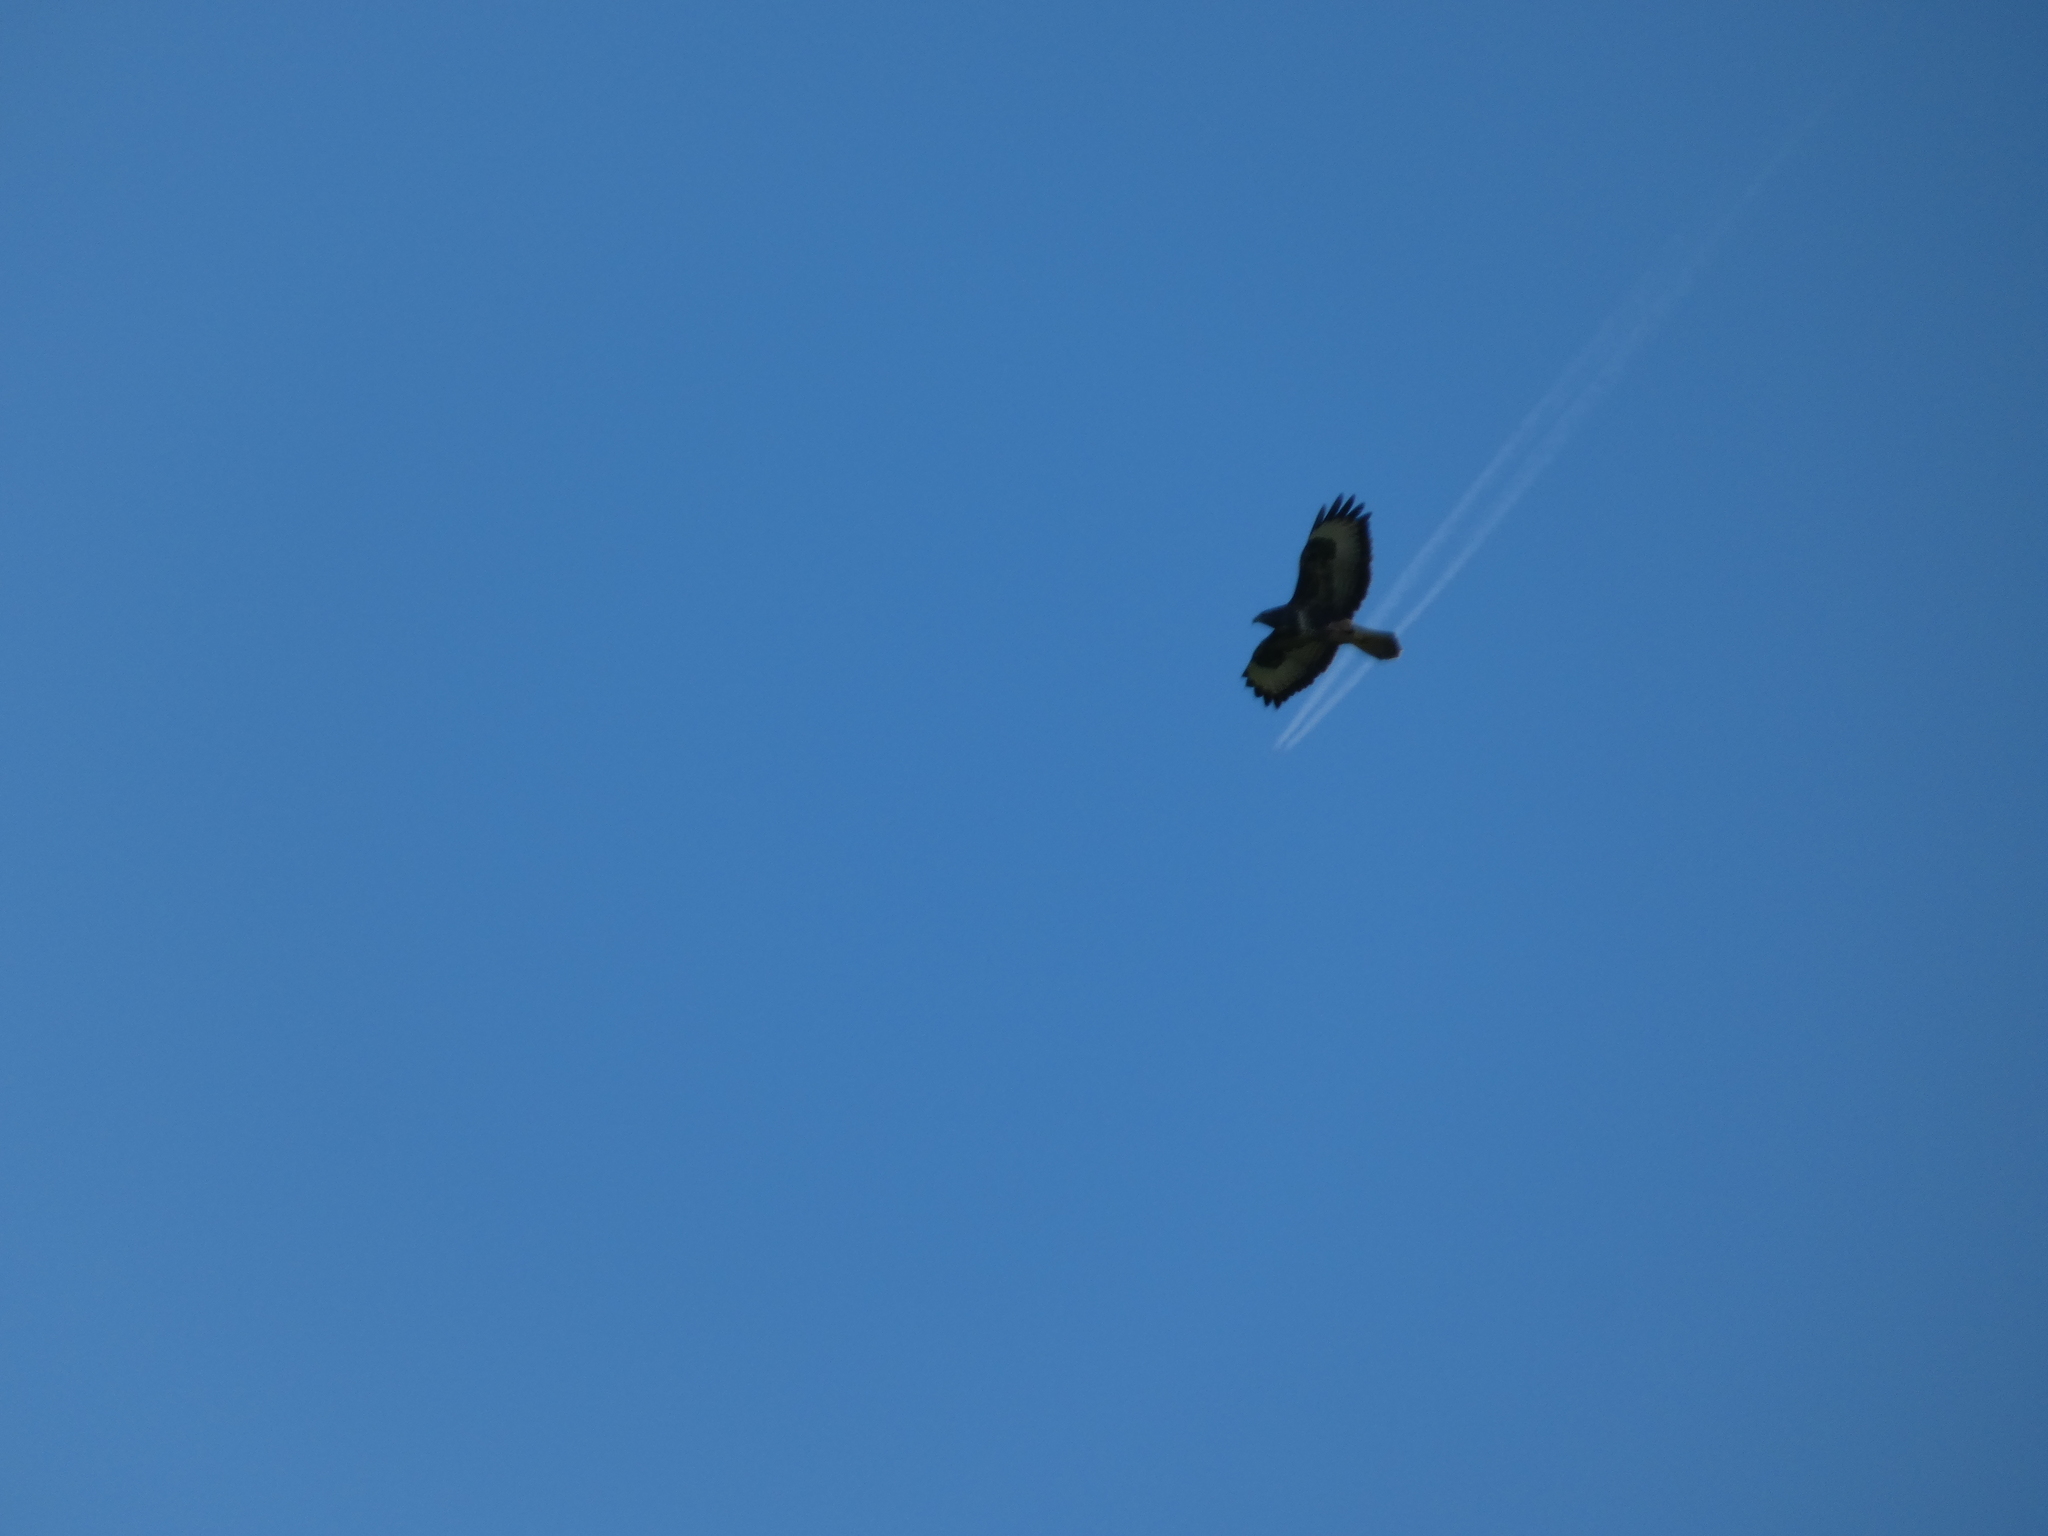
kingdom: Animalia
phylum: Chordata
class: Aves
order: Accipitriformes
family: Accipitridae
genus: Buteo
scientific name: Buteo buteo
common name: Common buzzard
